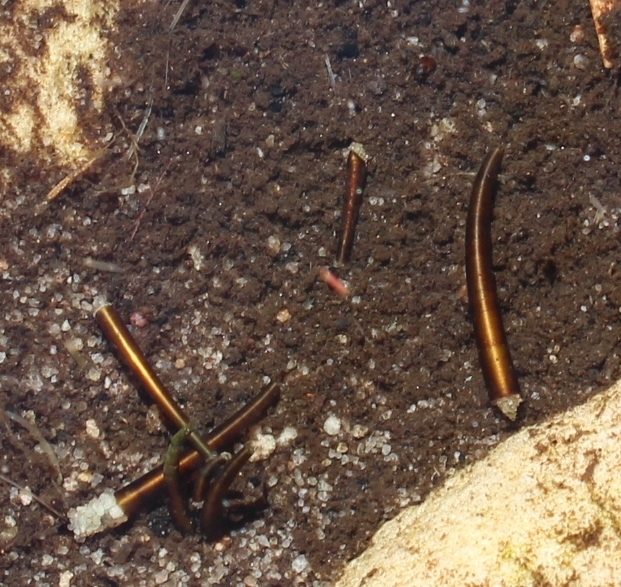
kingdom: Animalia
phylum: Arthropoda
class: Insecta
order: Trichoptera
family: Leptoceridae
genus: Athripsodes
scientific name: Athripsodes bergensis
